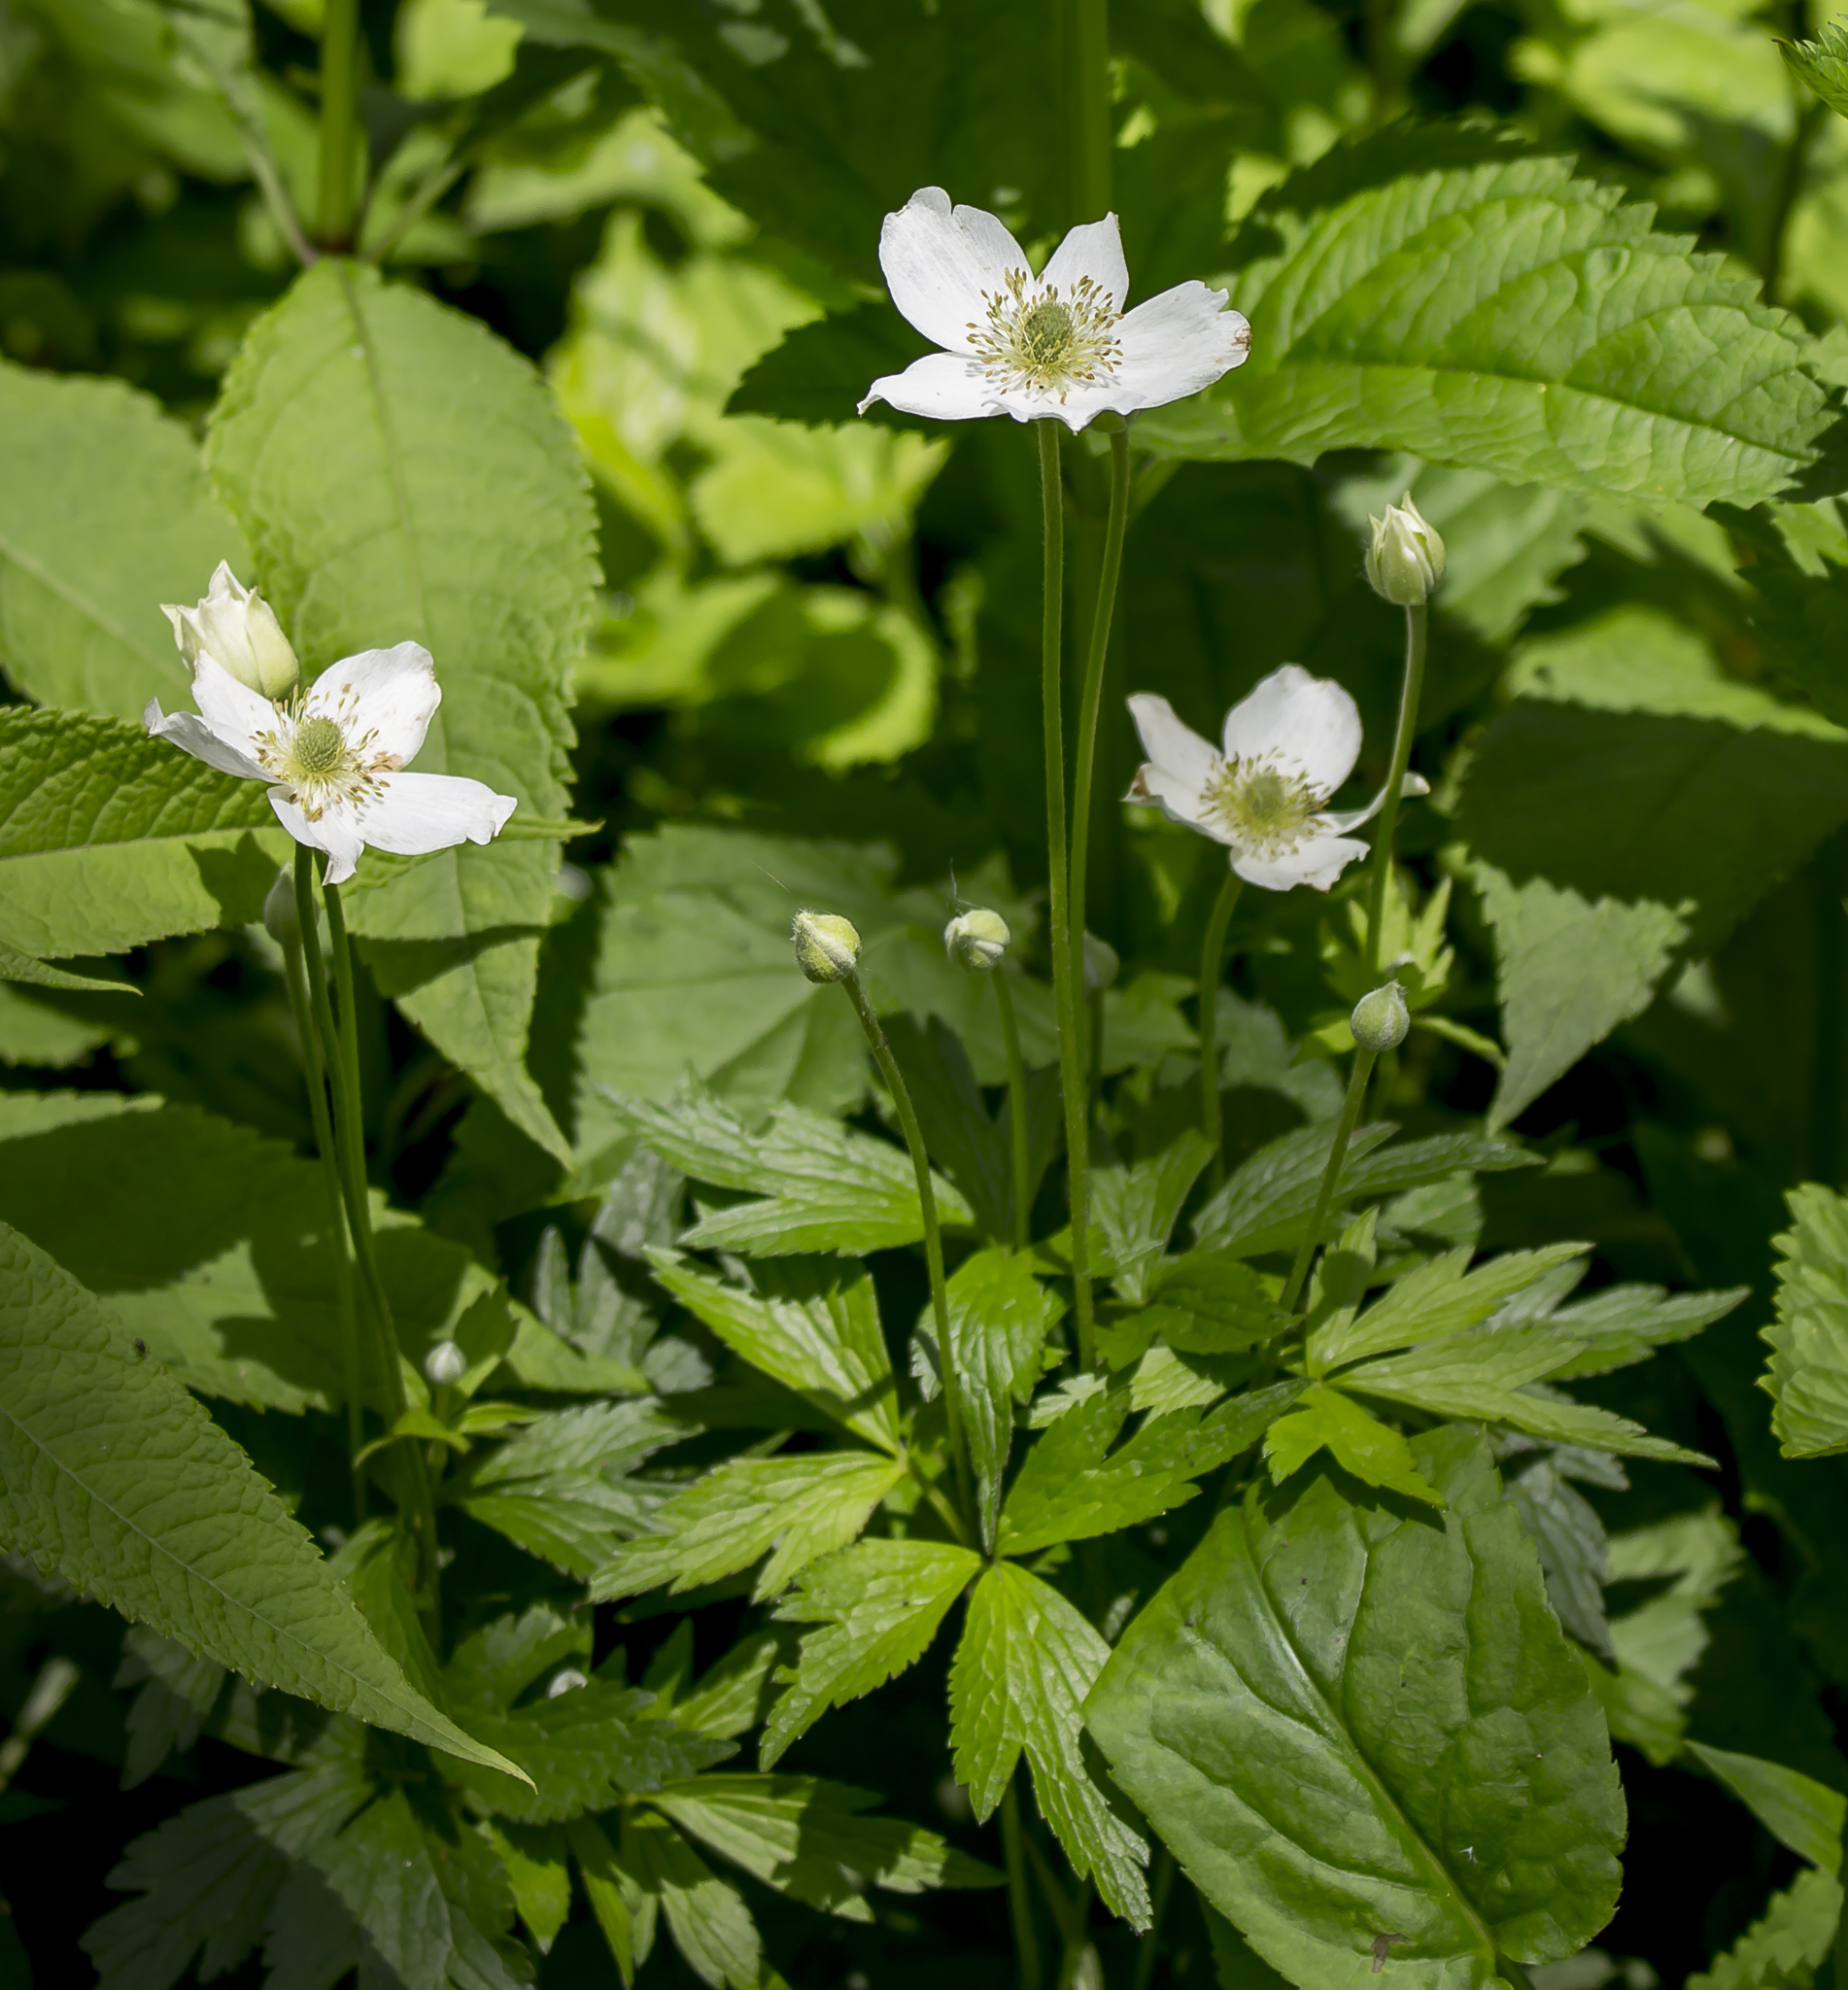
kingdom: Plantae
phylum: Tracheophyta
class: Magnoliopsida
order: Ranunculales
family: Ranunculaceae
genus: Anemone
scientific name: Anemone virginiana
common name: Tall anemone
